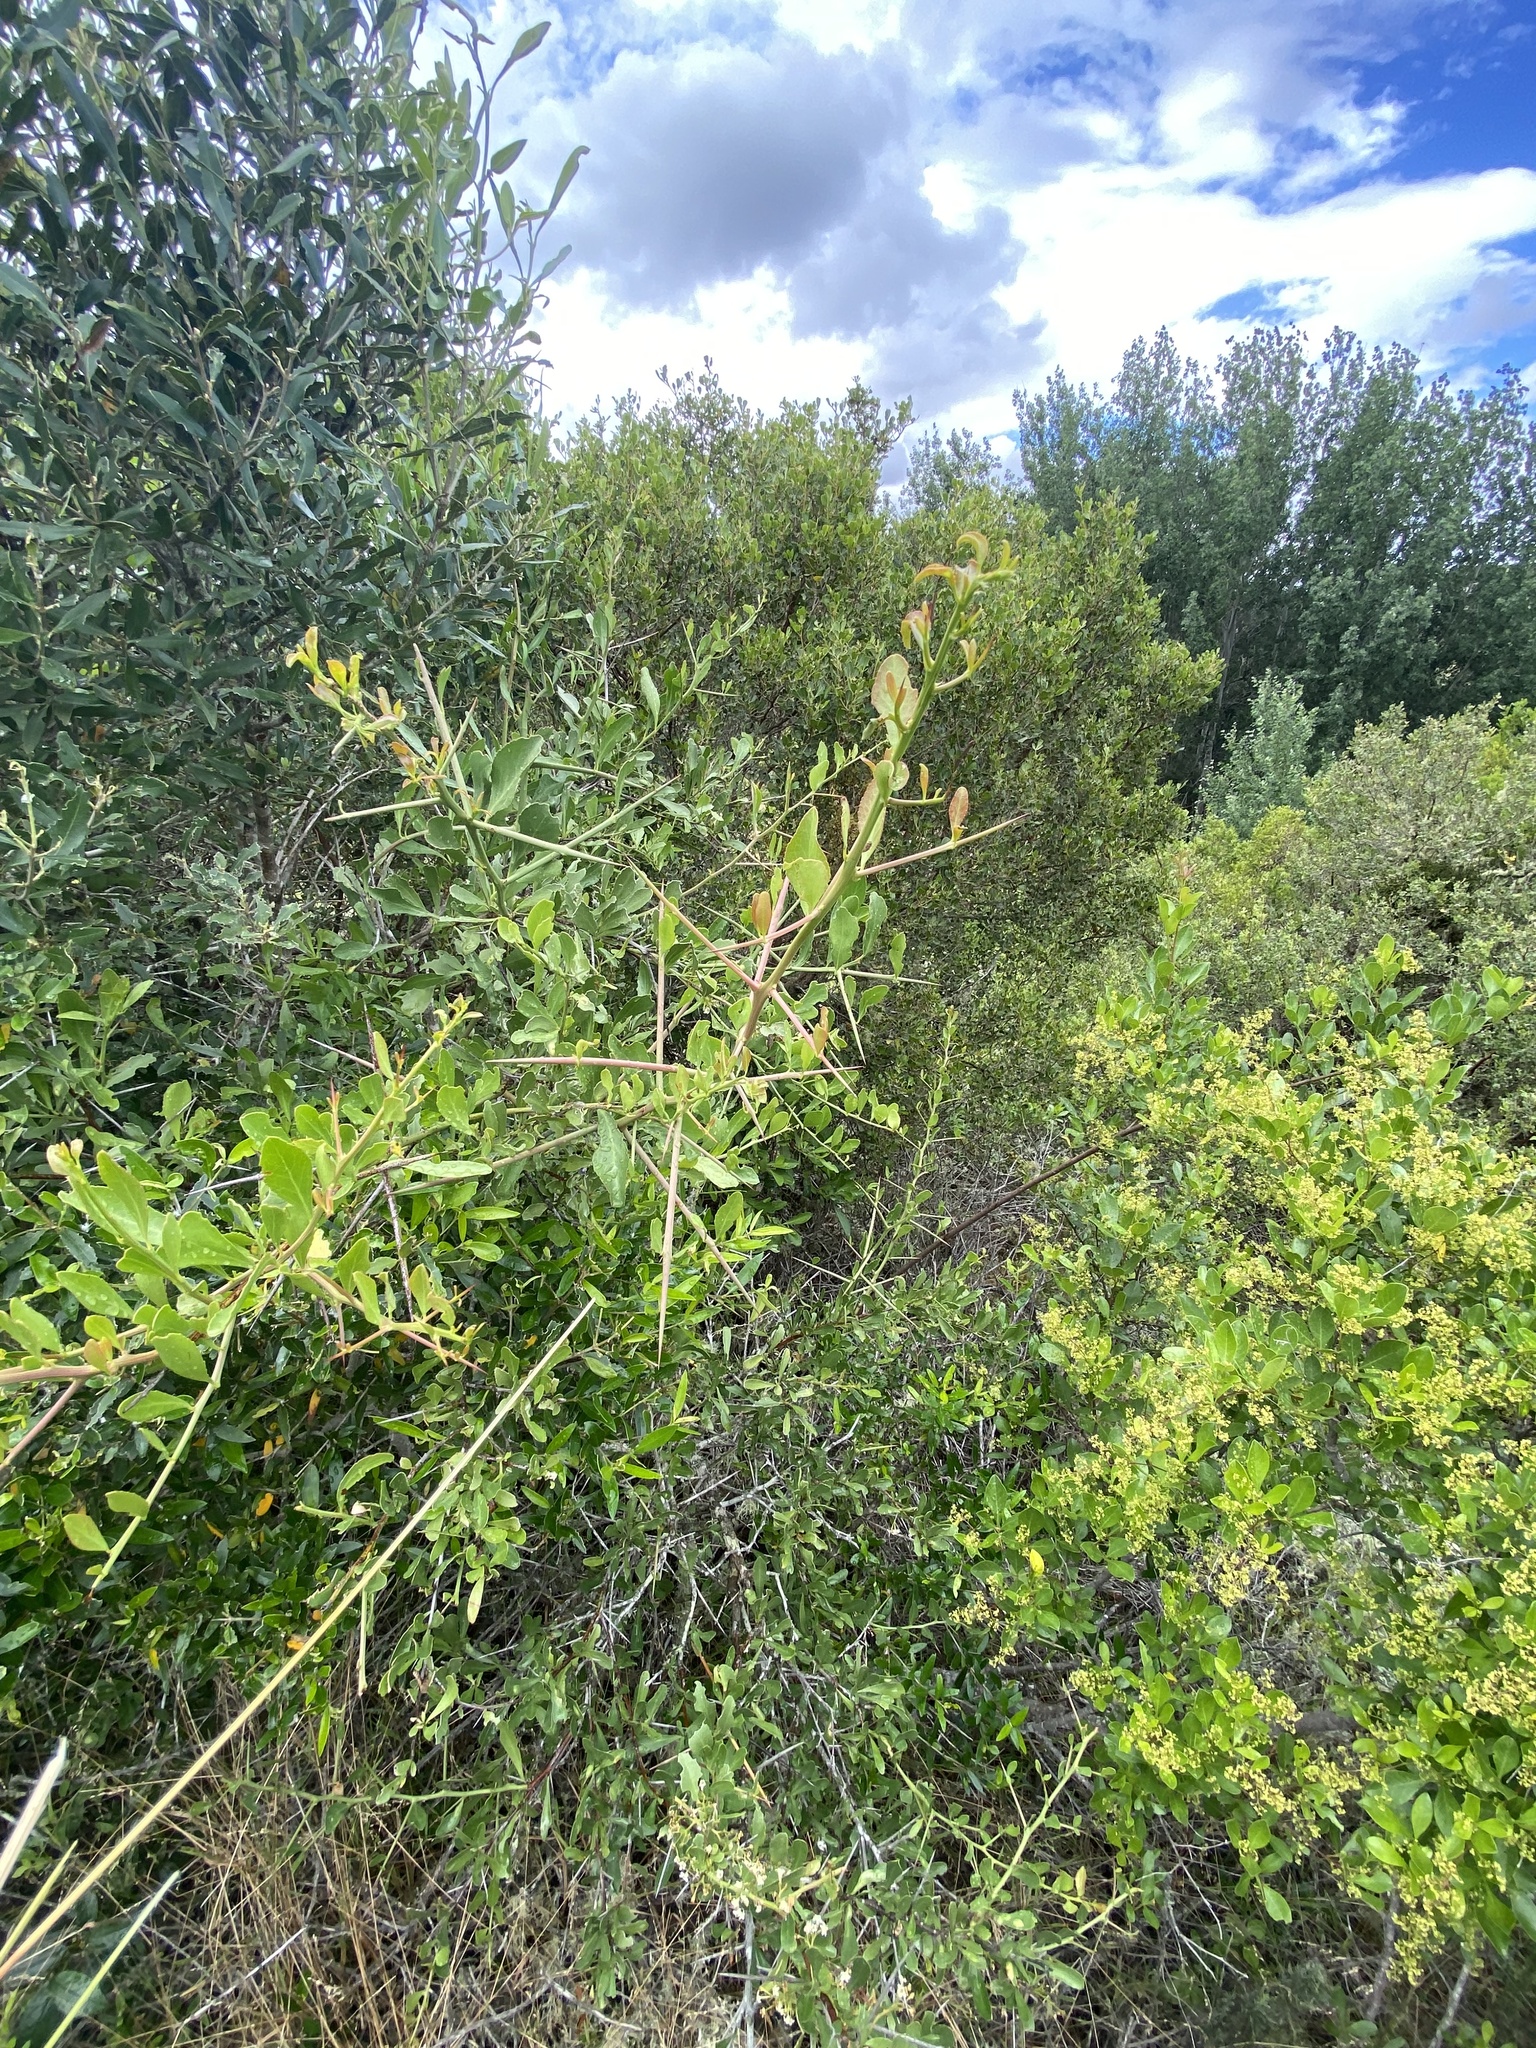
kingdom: Plantae
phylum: Tracheophyta
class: Magnoliopsida
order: Celastrales
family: Celastraceae
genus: Gymnosporia
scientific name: Gymnosporia buxifolia
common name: Common spike-thorn
